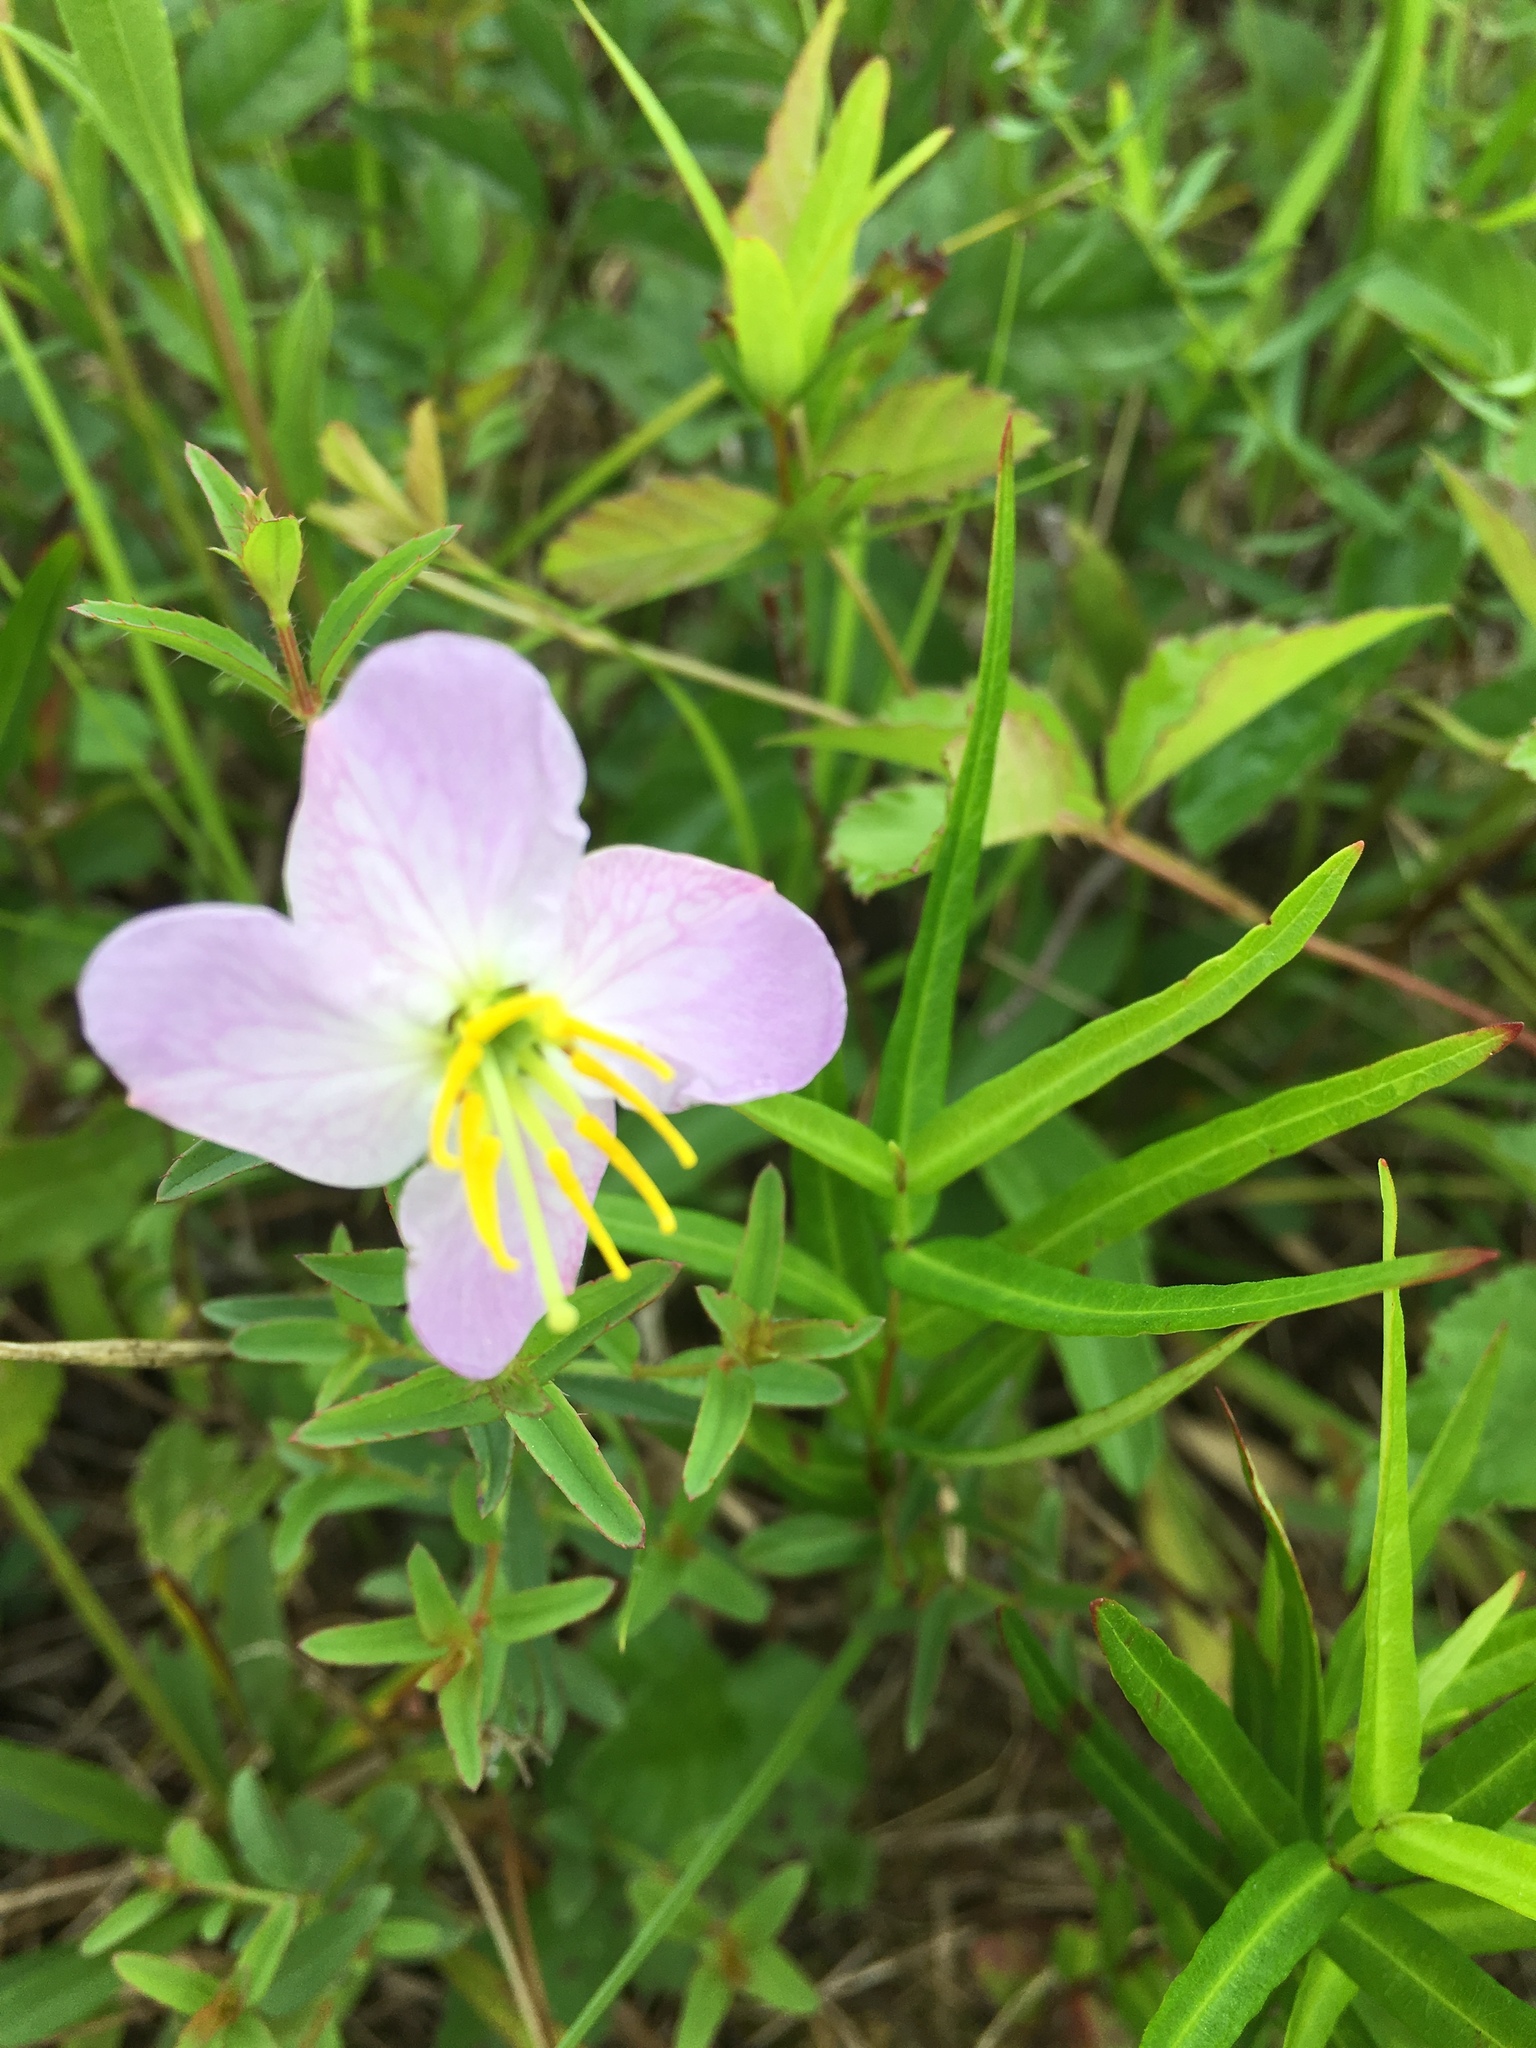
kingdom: Plantae
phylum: Tracheophyta
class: Magnoliopsida
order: Myrtales
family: Melastomataceae
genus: Rhexia
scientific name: Rhexia mariana
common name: Dull meadow-pitcher
